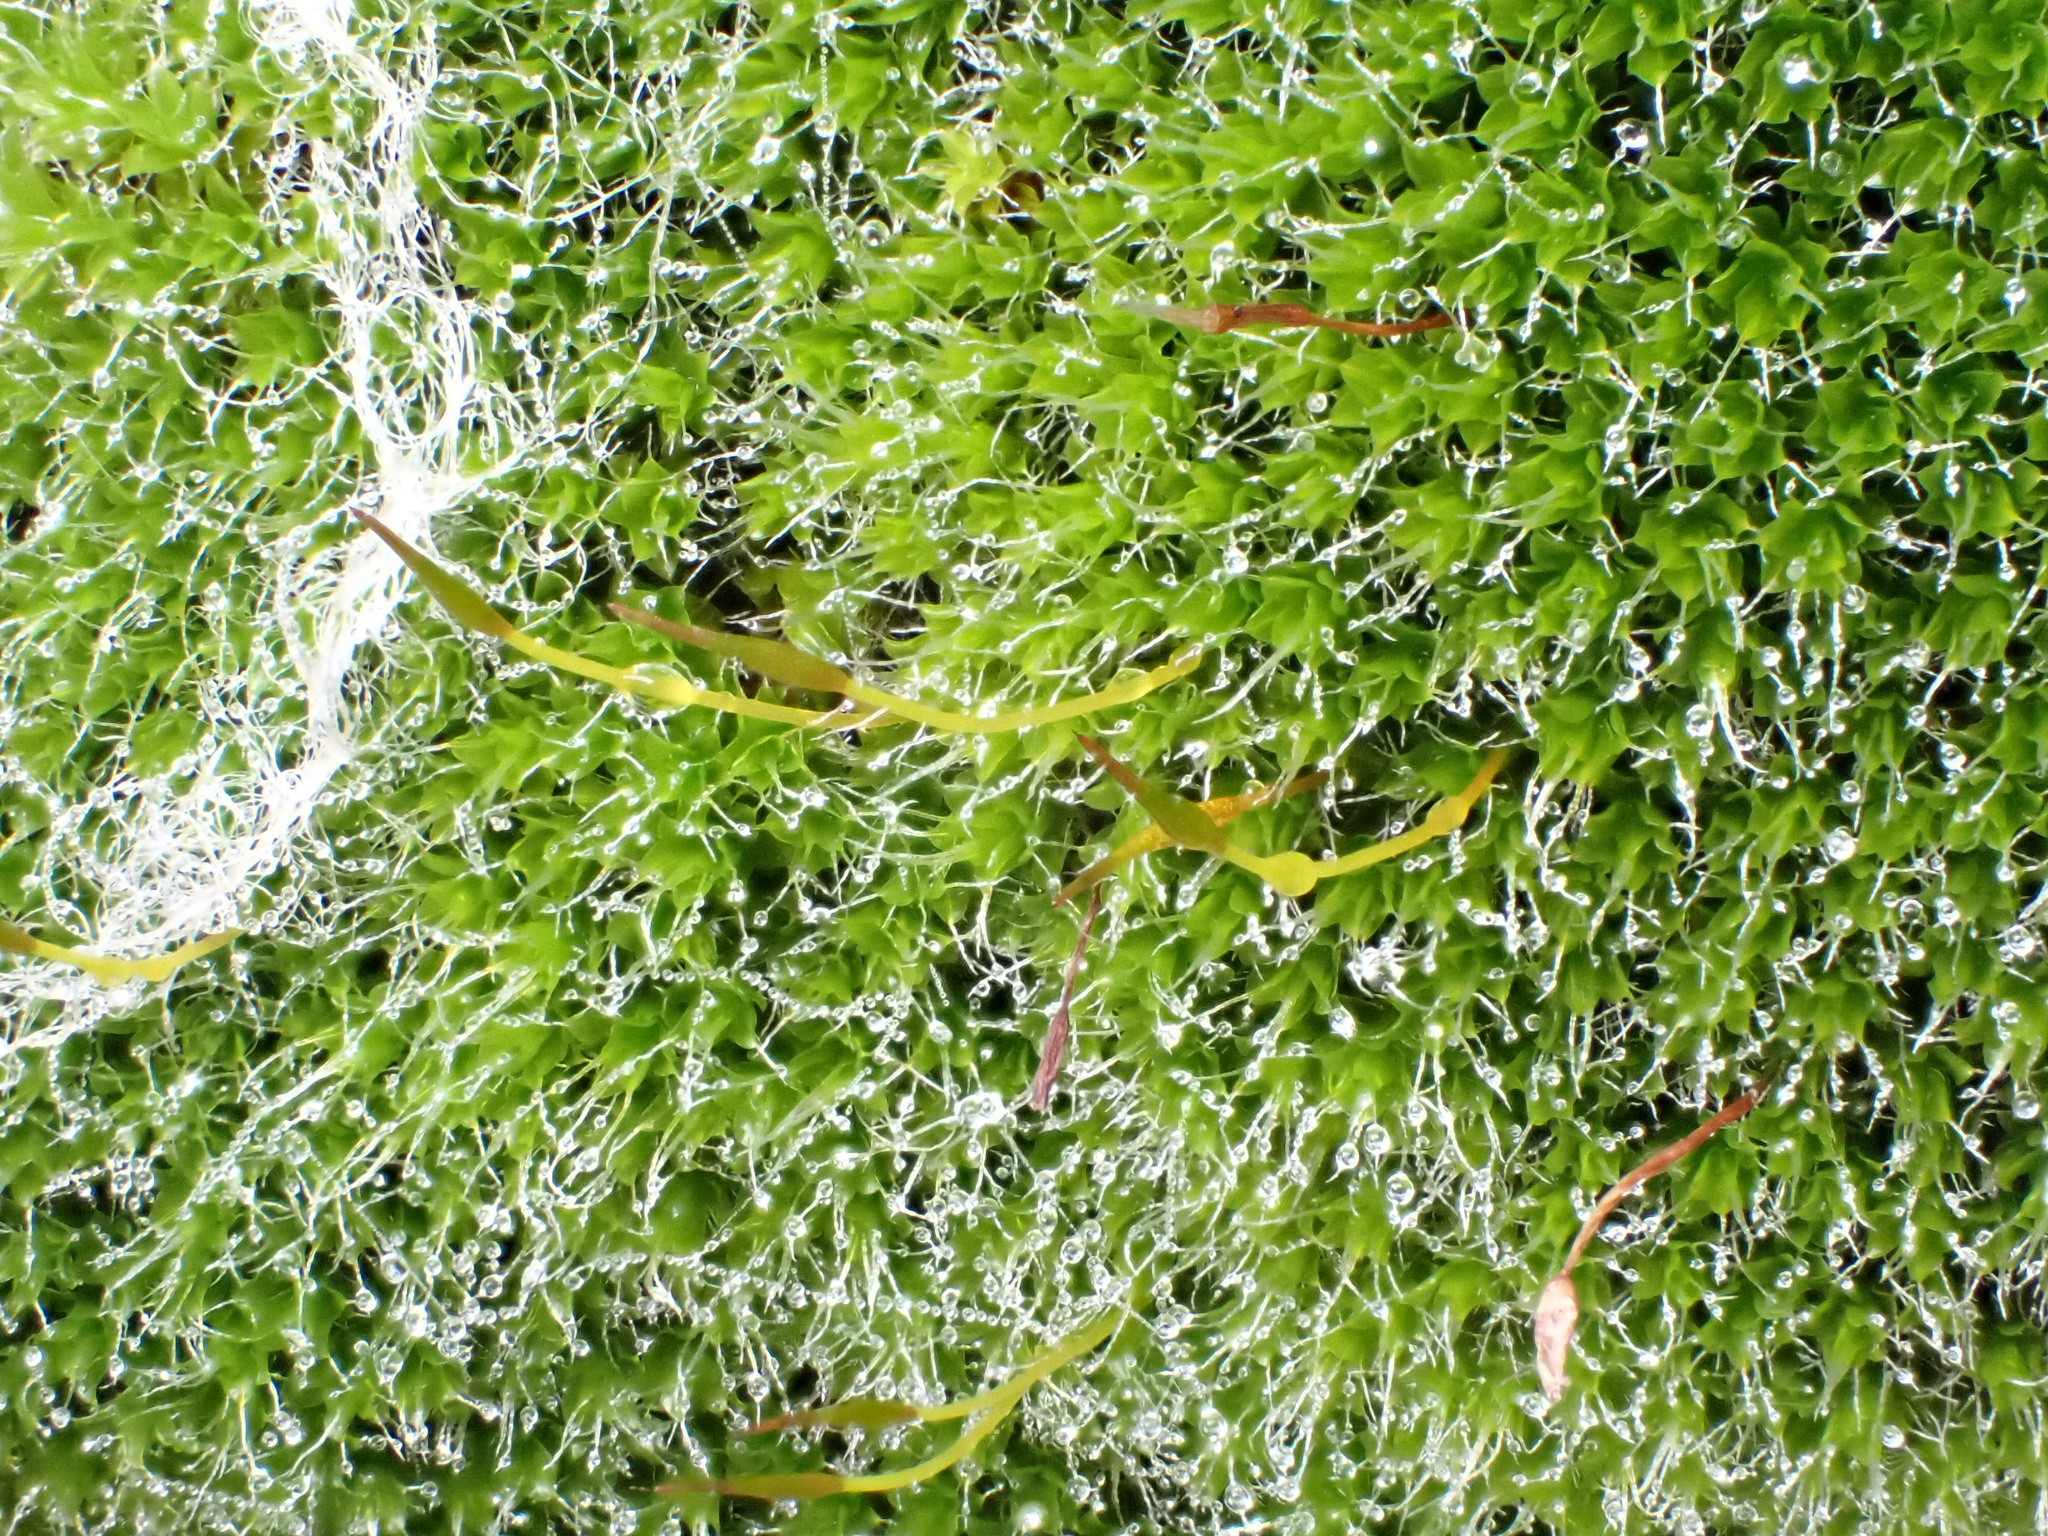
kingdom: Plantae
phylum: Bryophyta
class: Bryopsida
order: Grimmiales
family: Grimmiaceae
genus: Grimmia
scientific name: Grimmia pulvinata
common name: Grey-cushioned grimmia
